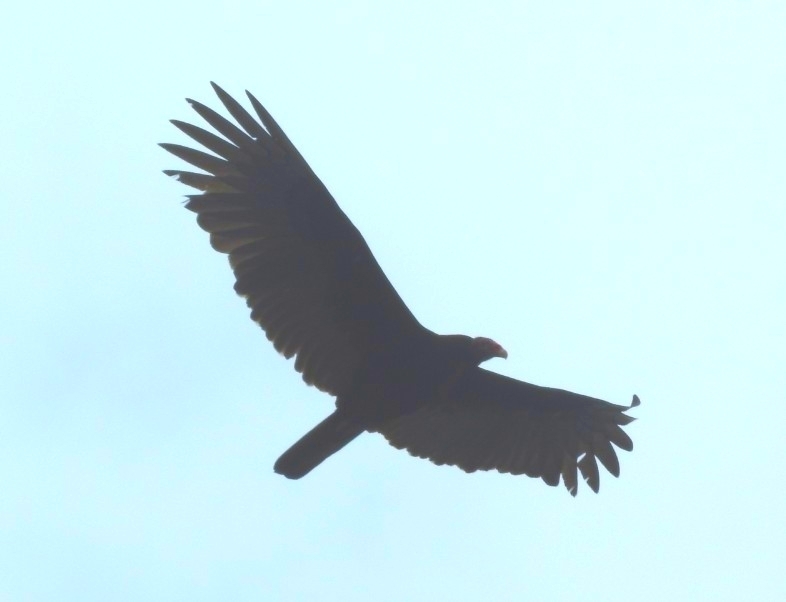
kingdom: Animalia
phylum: Chordata
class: Aves
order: Accipitriformes
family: Cathartidae
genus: Cathartes
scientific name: Cathartes aura
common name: Turkey vulture
